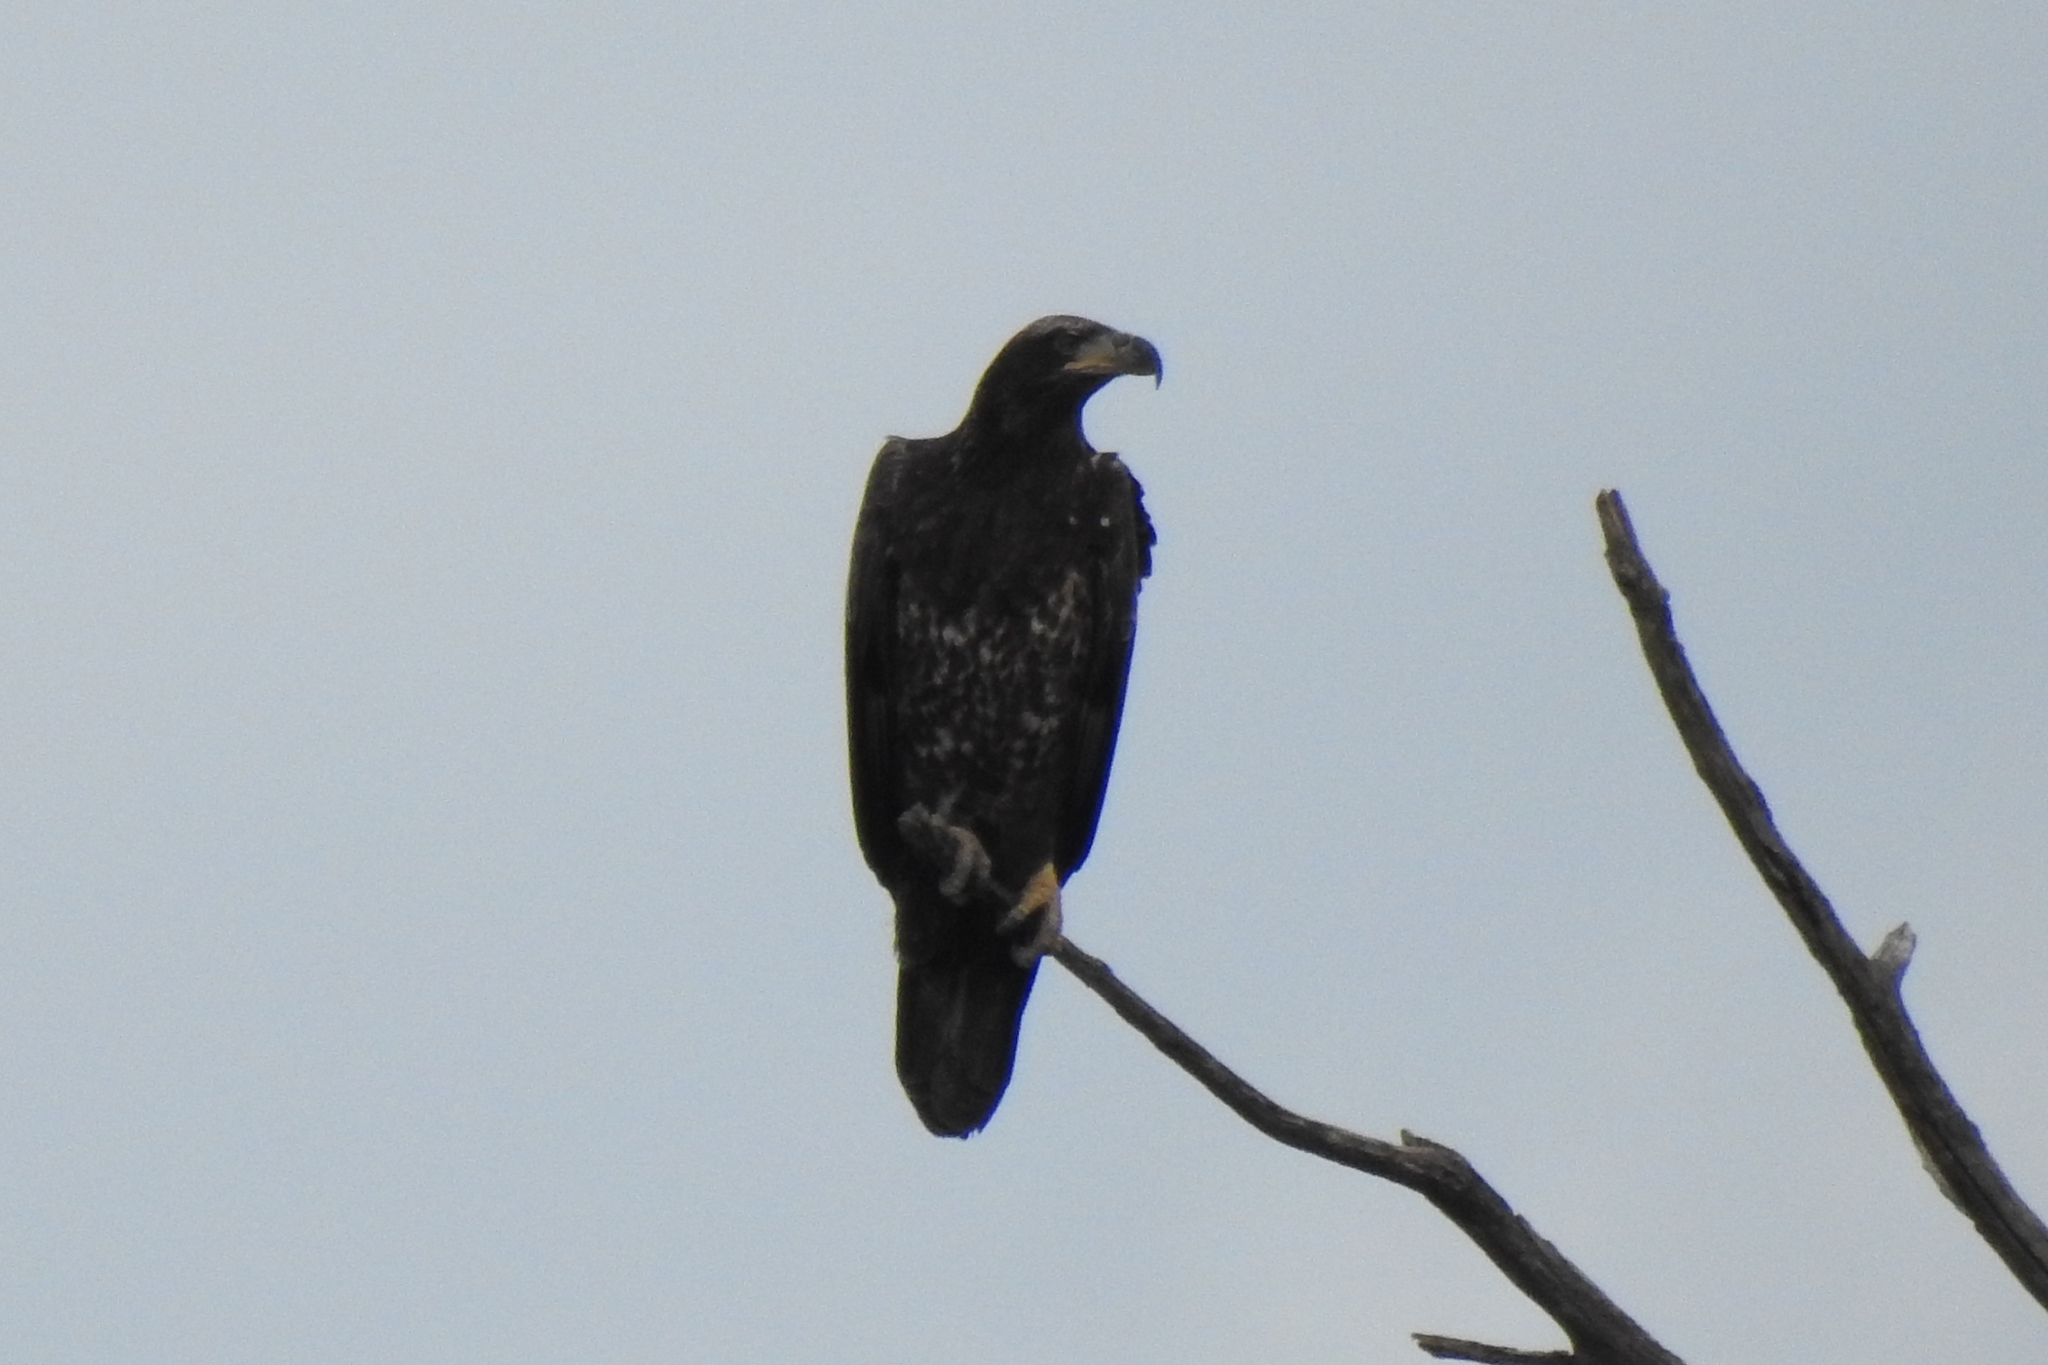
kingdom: Animalia
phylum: Chordata
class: Aves
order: Accipitriformes
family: Accipitridae
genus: Haliaeetus
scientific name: Haliaeetus leucocephalus
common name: Bald eagle
